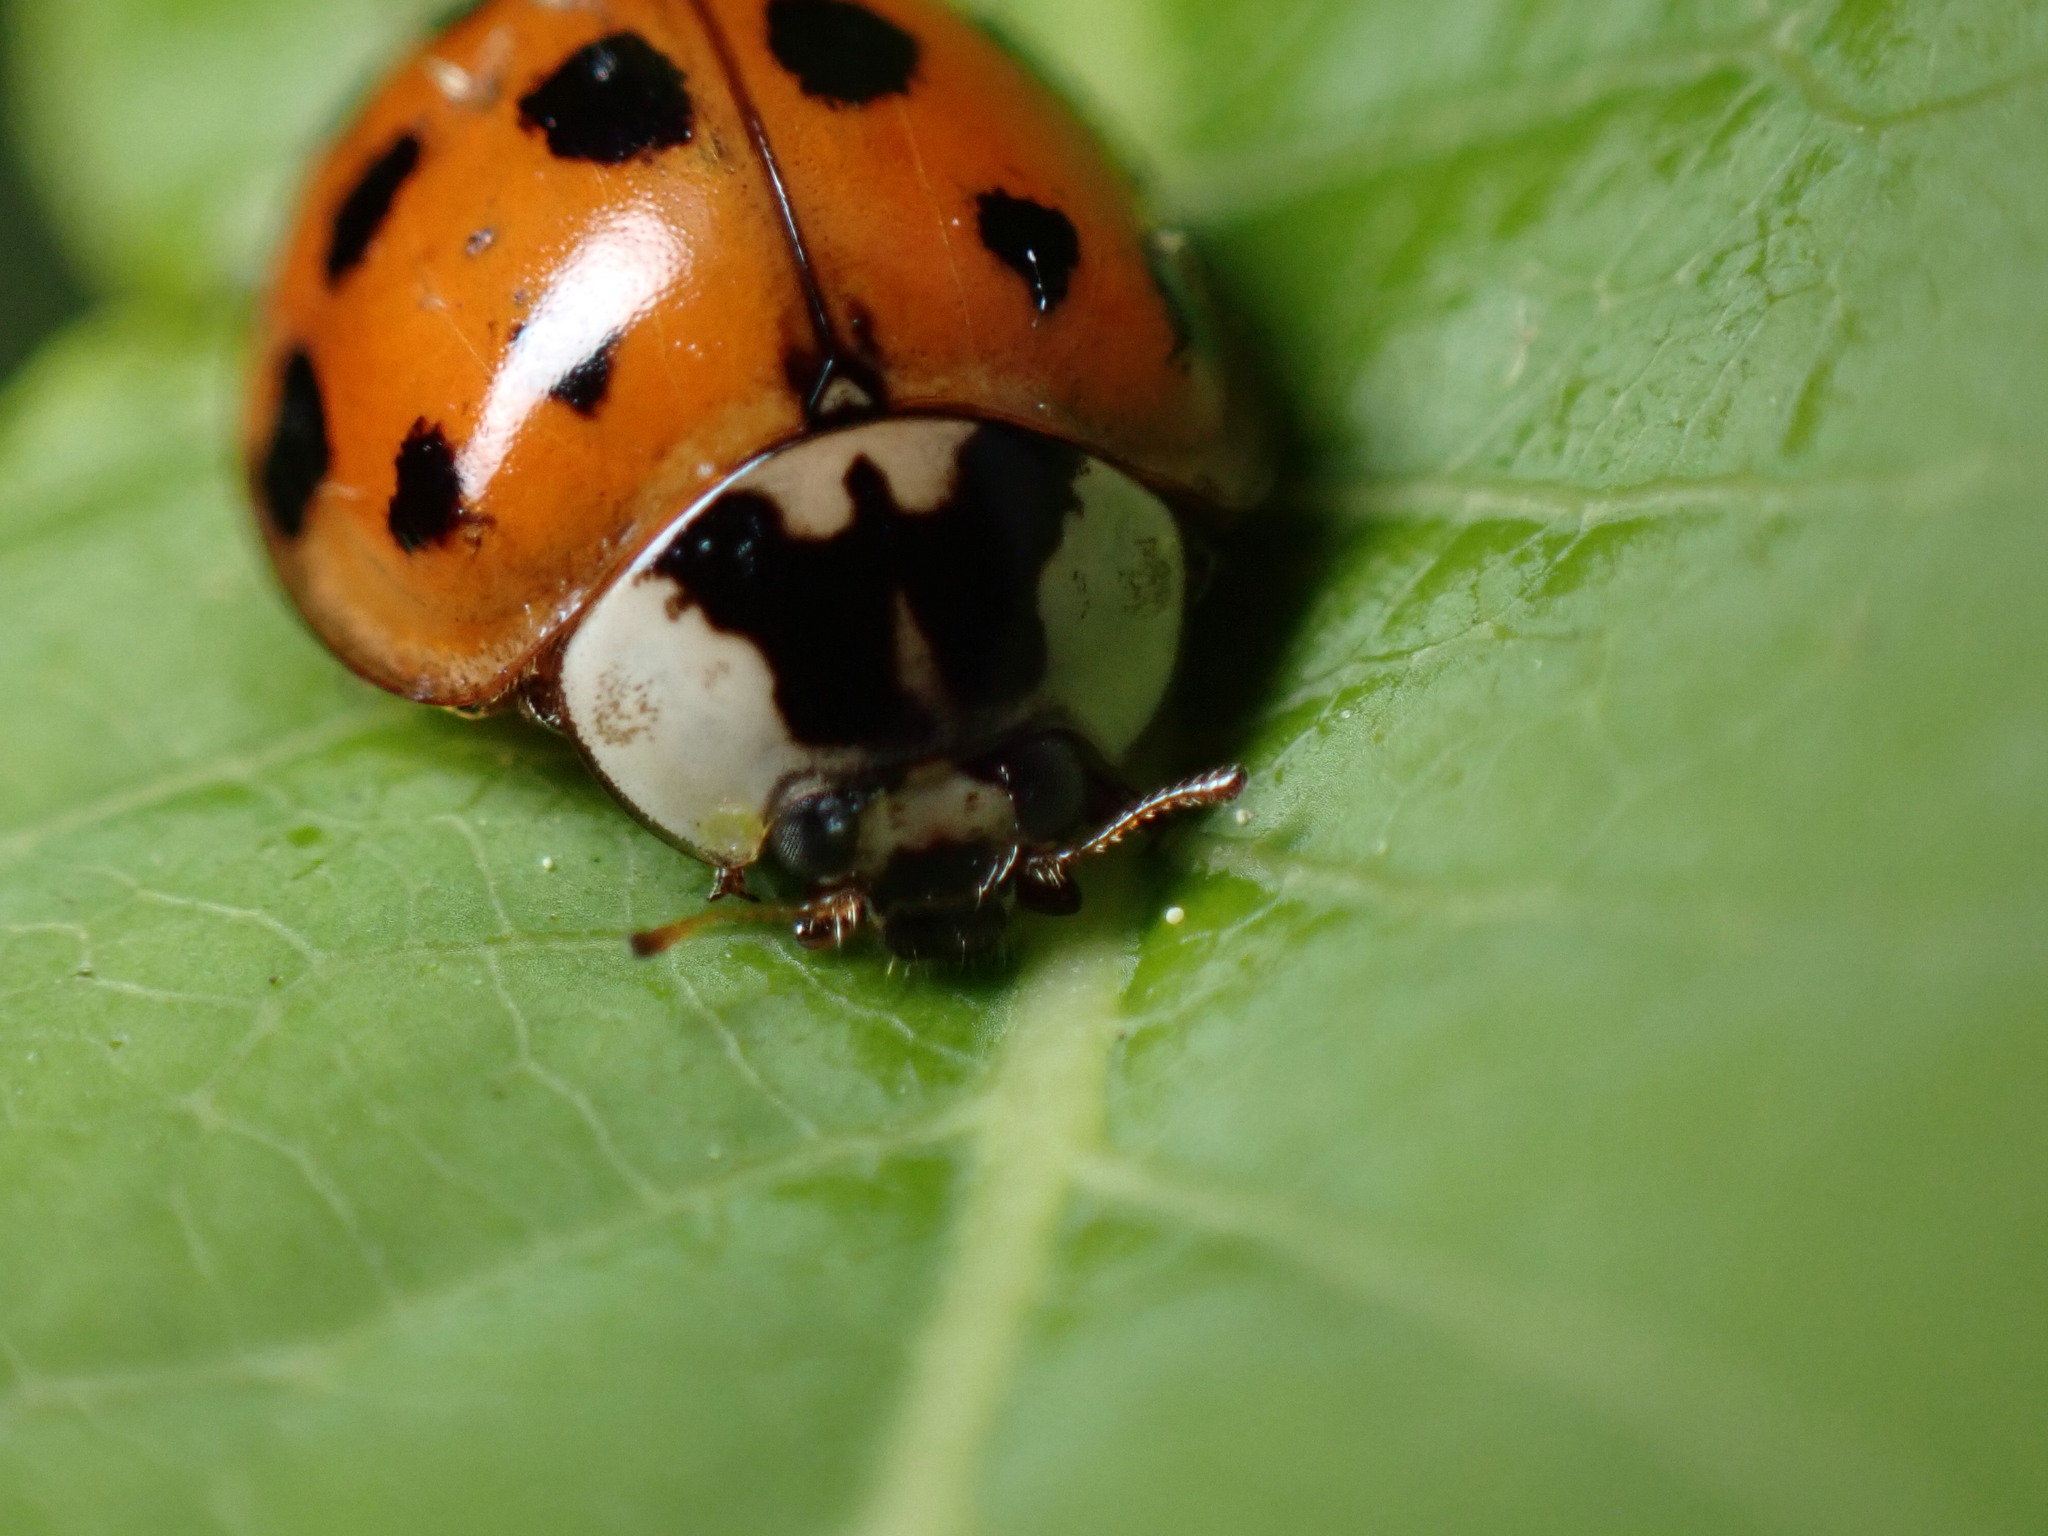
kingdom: Animalia
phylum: Arthropoda
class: Insecta
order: Coleoptera
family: Coccinellidae
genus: Harmonia
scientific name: Harmonia axyridis
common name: Harlequin ladybird
